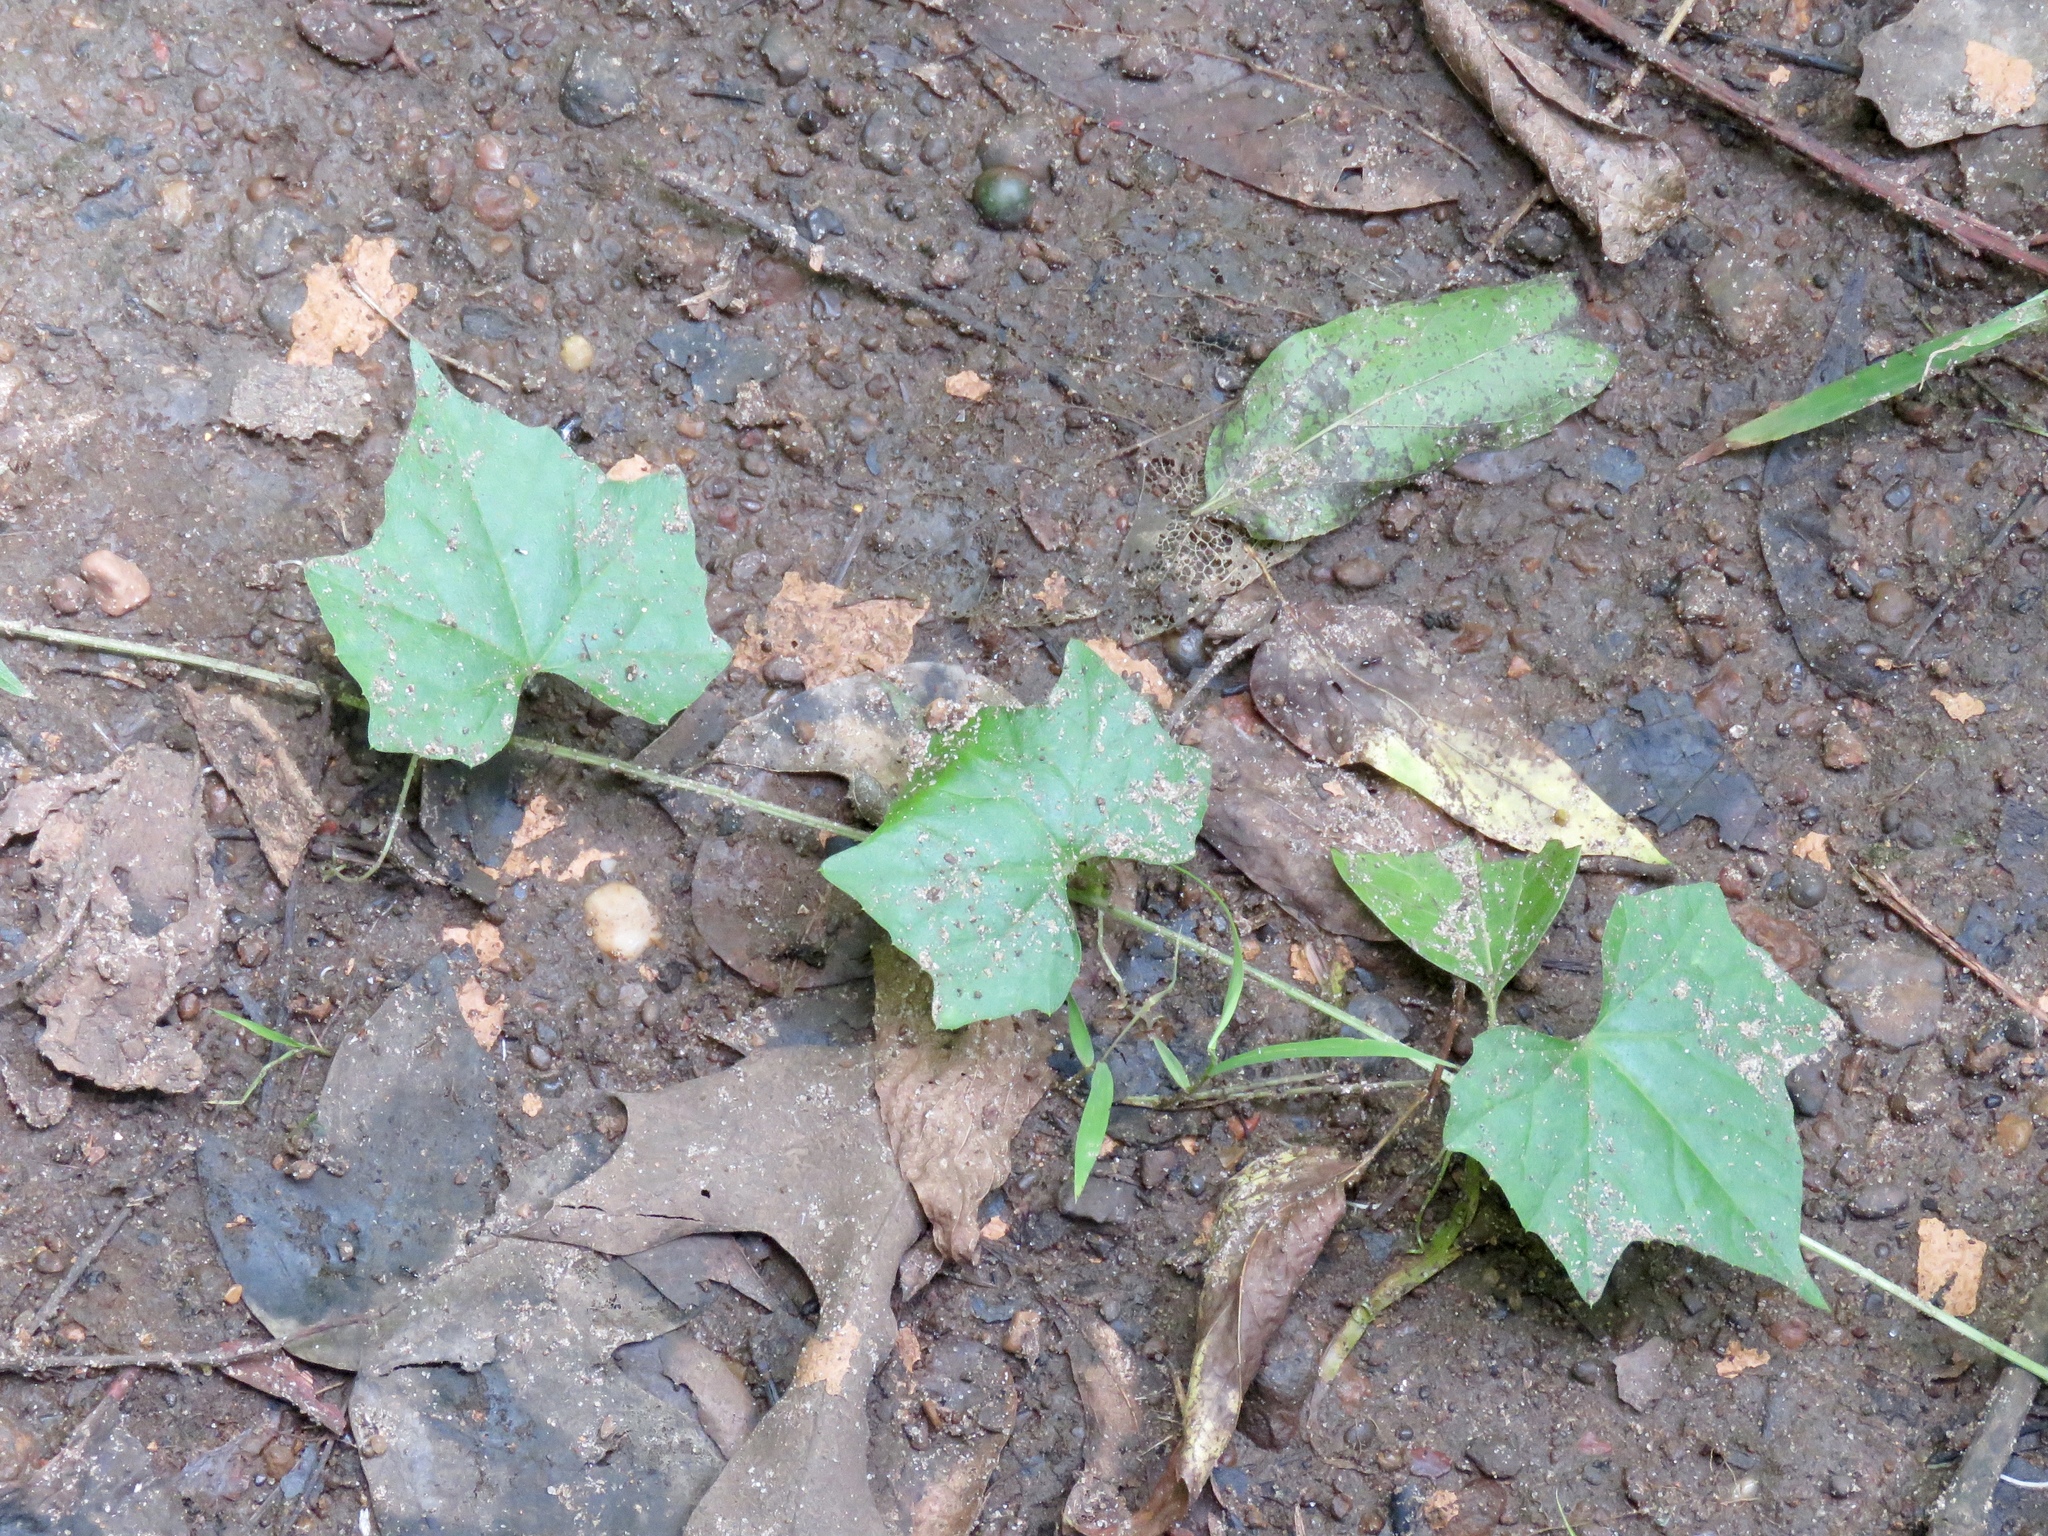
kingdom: Plantae
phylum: Tracheophyta
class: Magnoliopsida
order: Cucurbitales
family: Cucurbitaceae
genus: Melothria
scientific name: Melothria pendula
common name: Creeping-cucumber
